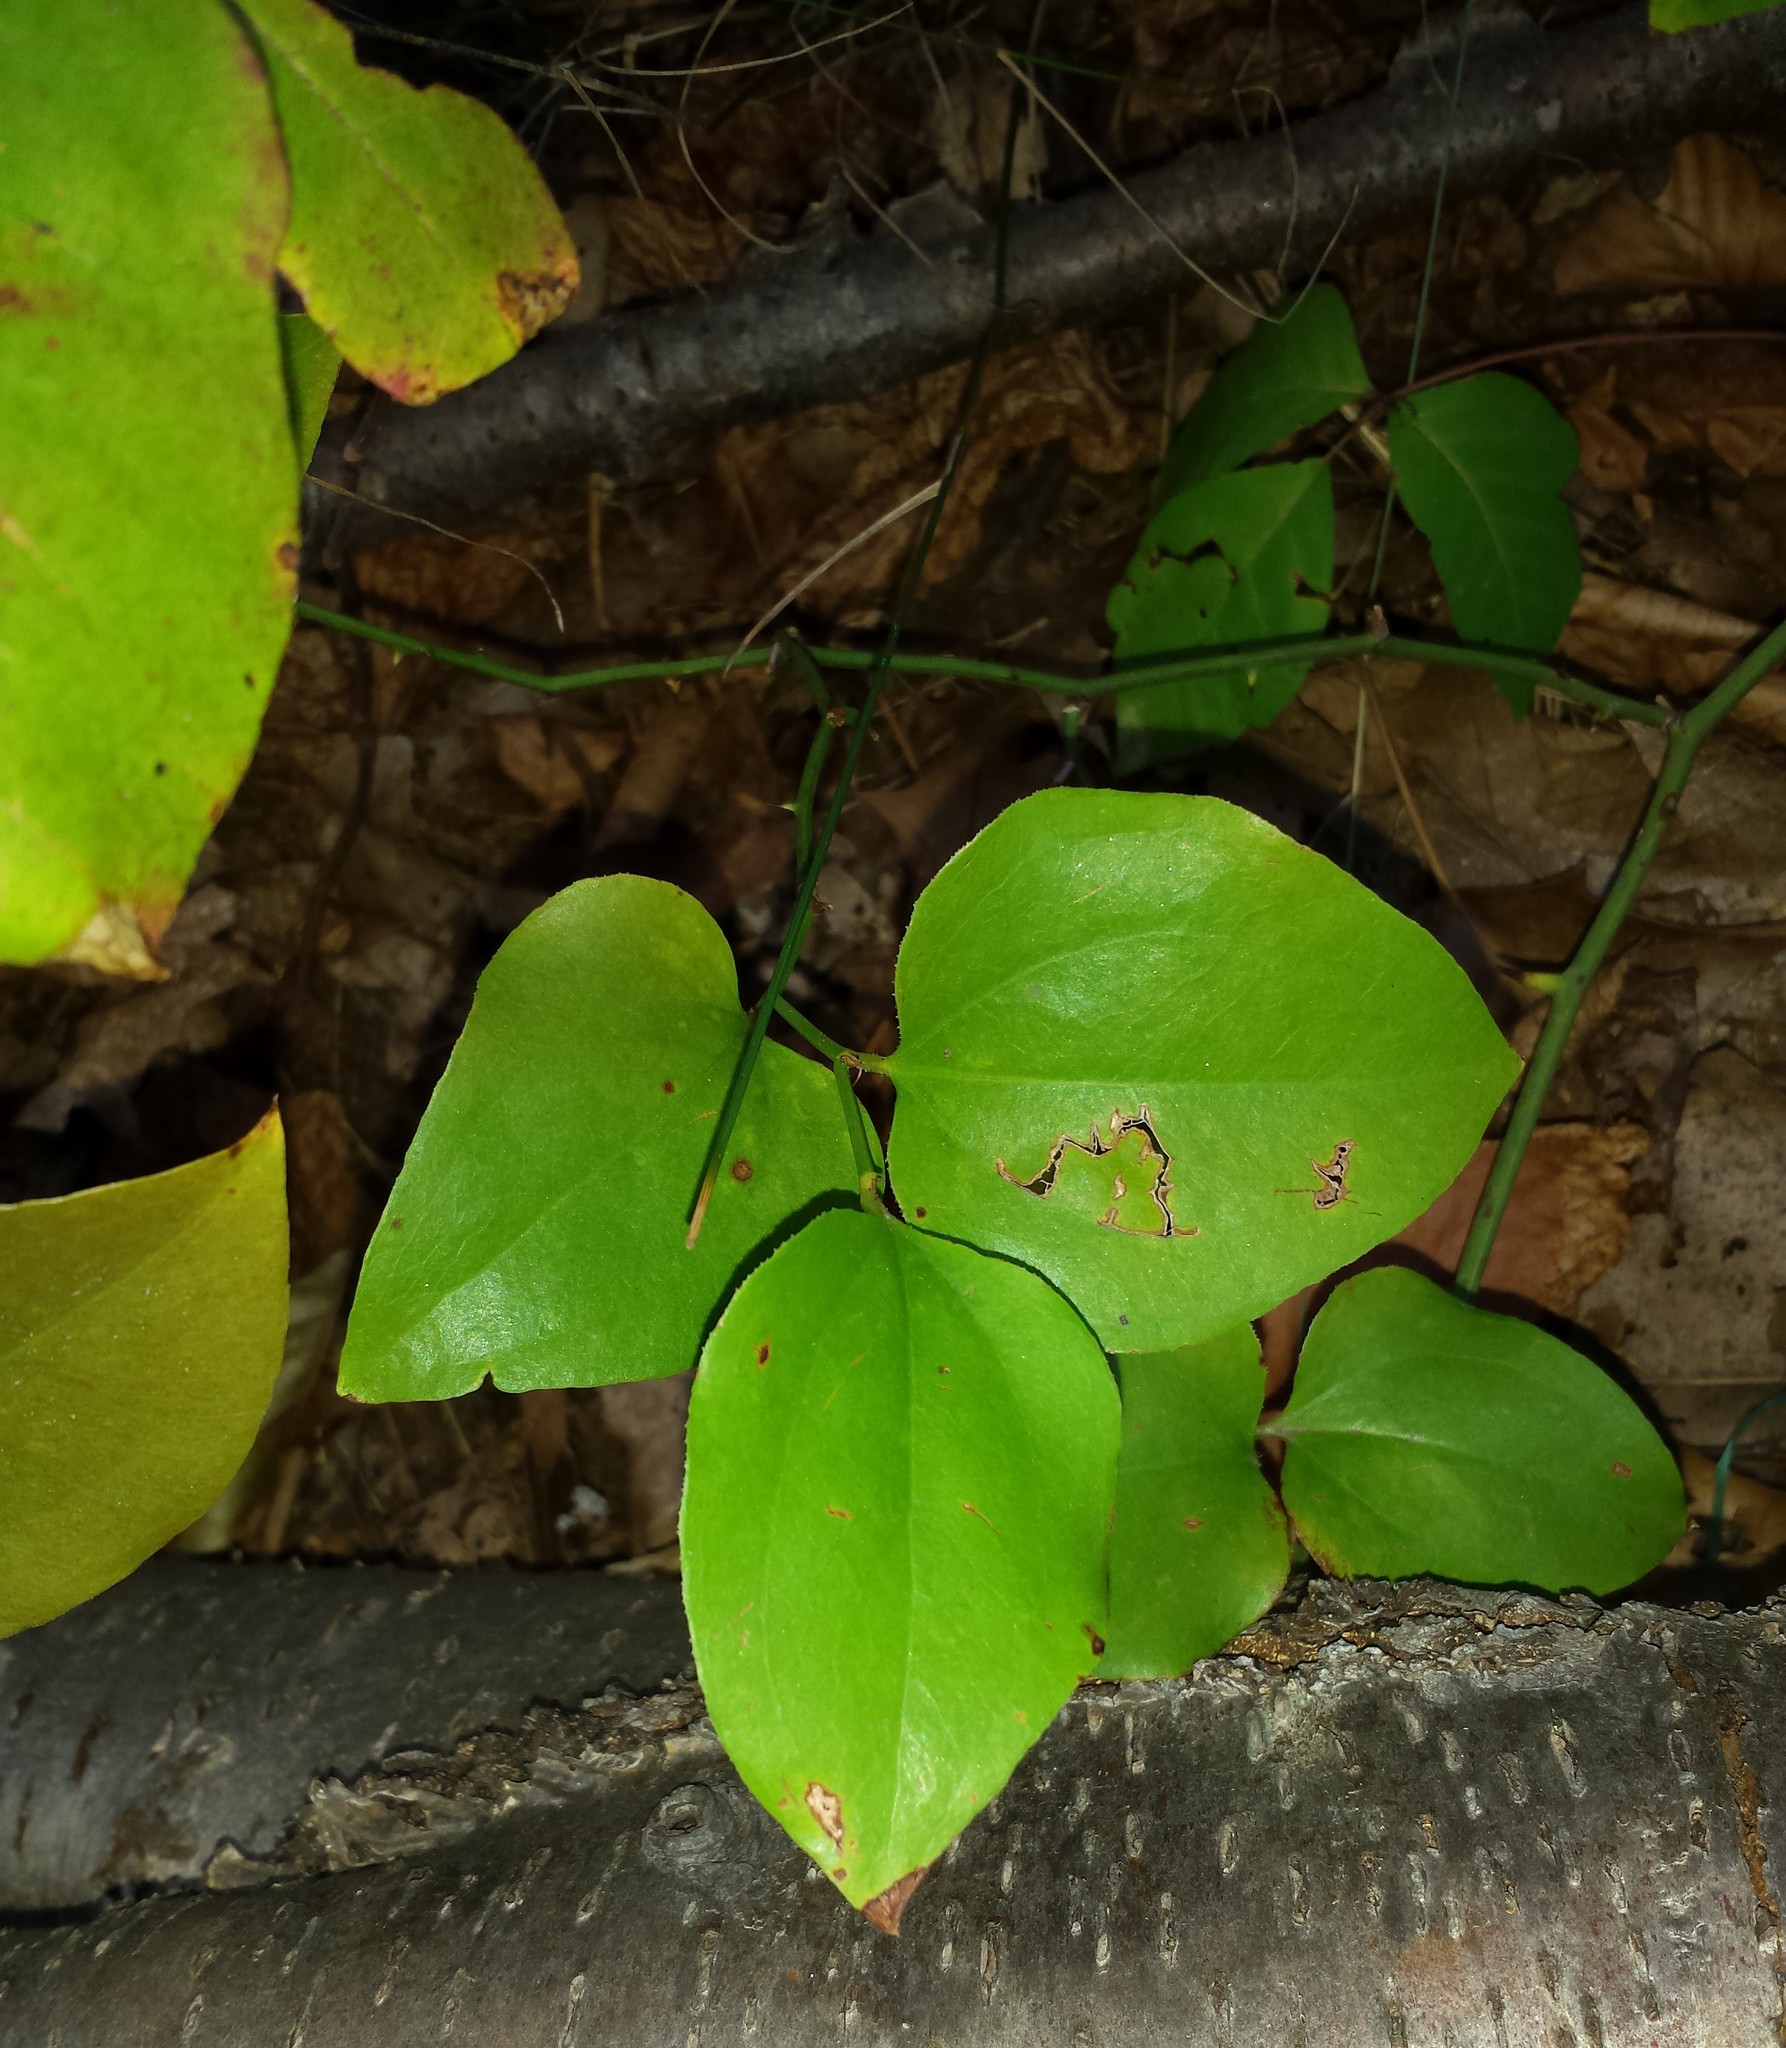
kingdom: Plantae
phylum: Tracheophyta
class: Liliopsida
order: Liliales
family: Smilacaceae
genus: Smilax
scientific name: Smilax rotundifolia
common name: Bullbriar
